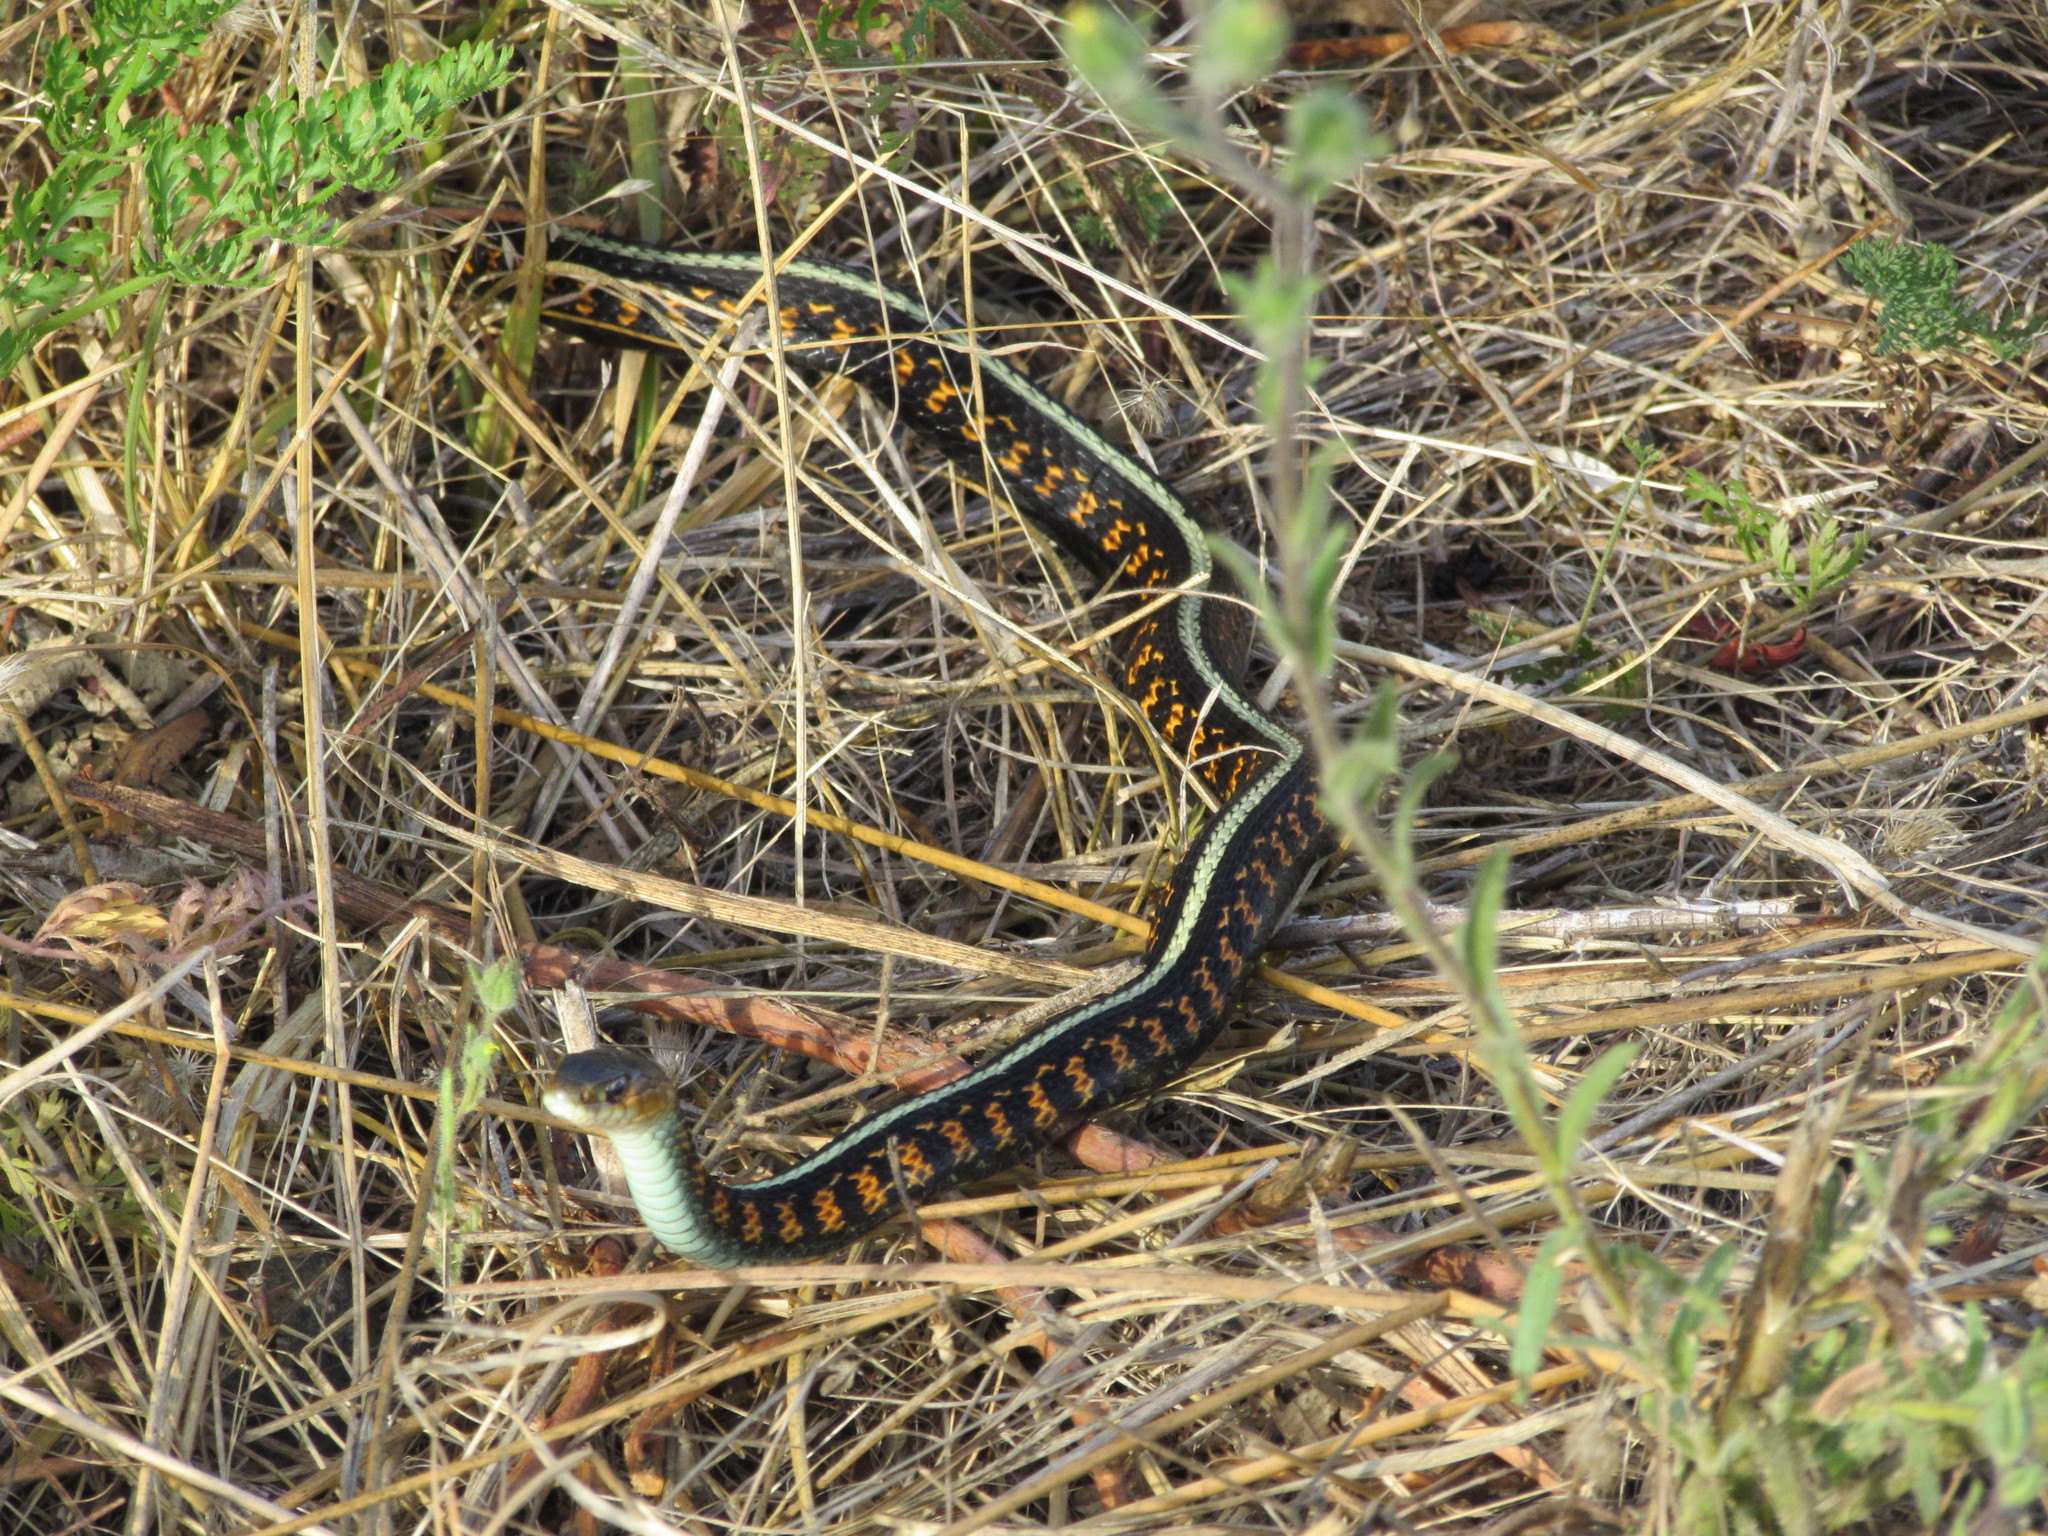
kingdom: Animalia
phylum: Chordata
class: Squamata
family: Colubridae
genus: Thamnophis
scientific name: Thamnophis sirtalis
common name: Common garter snake
